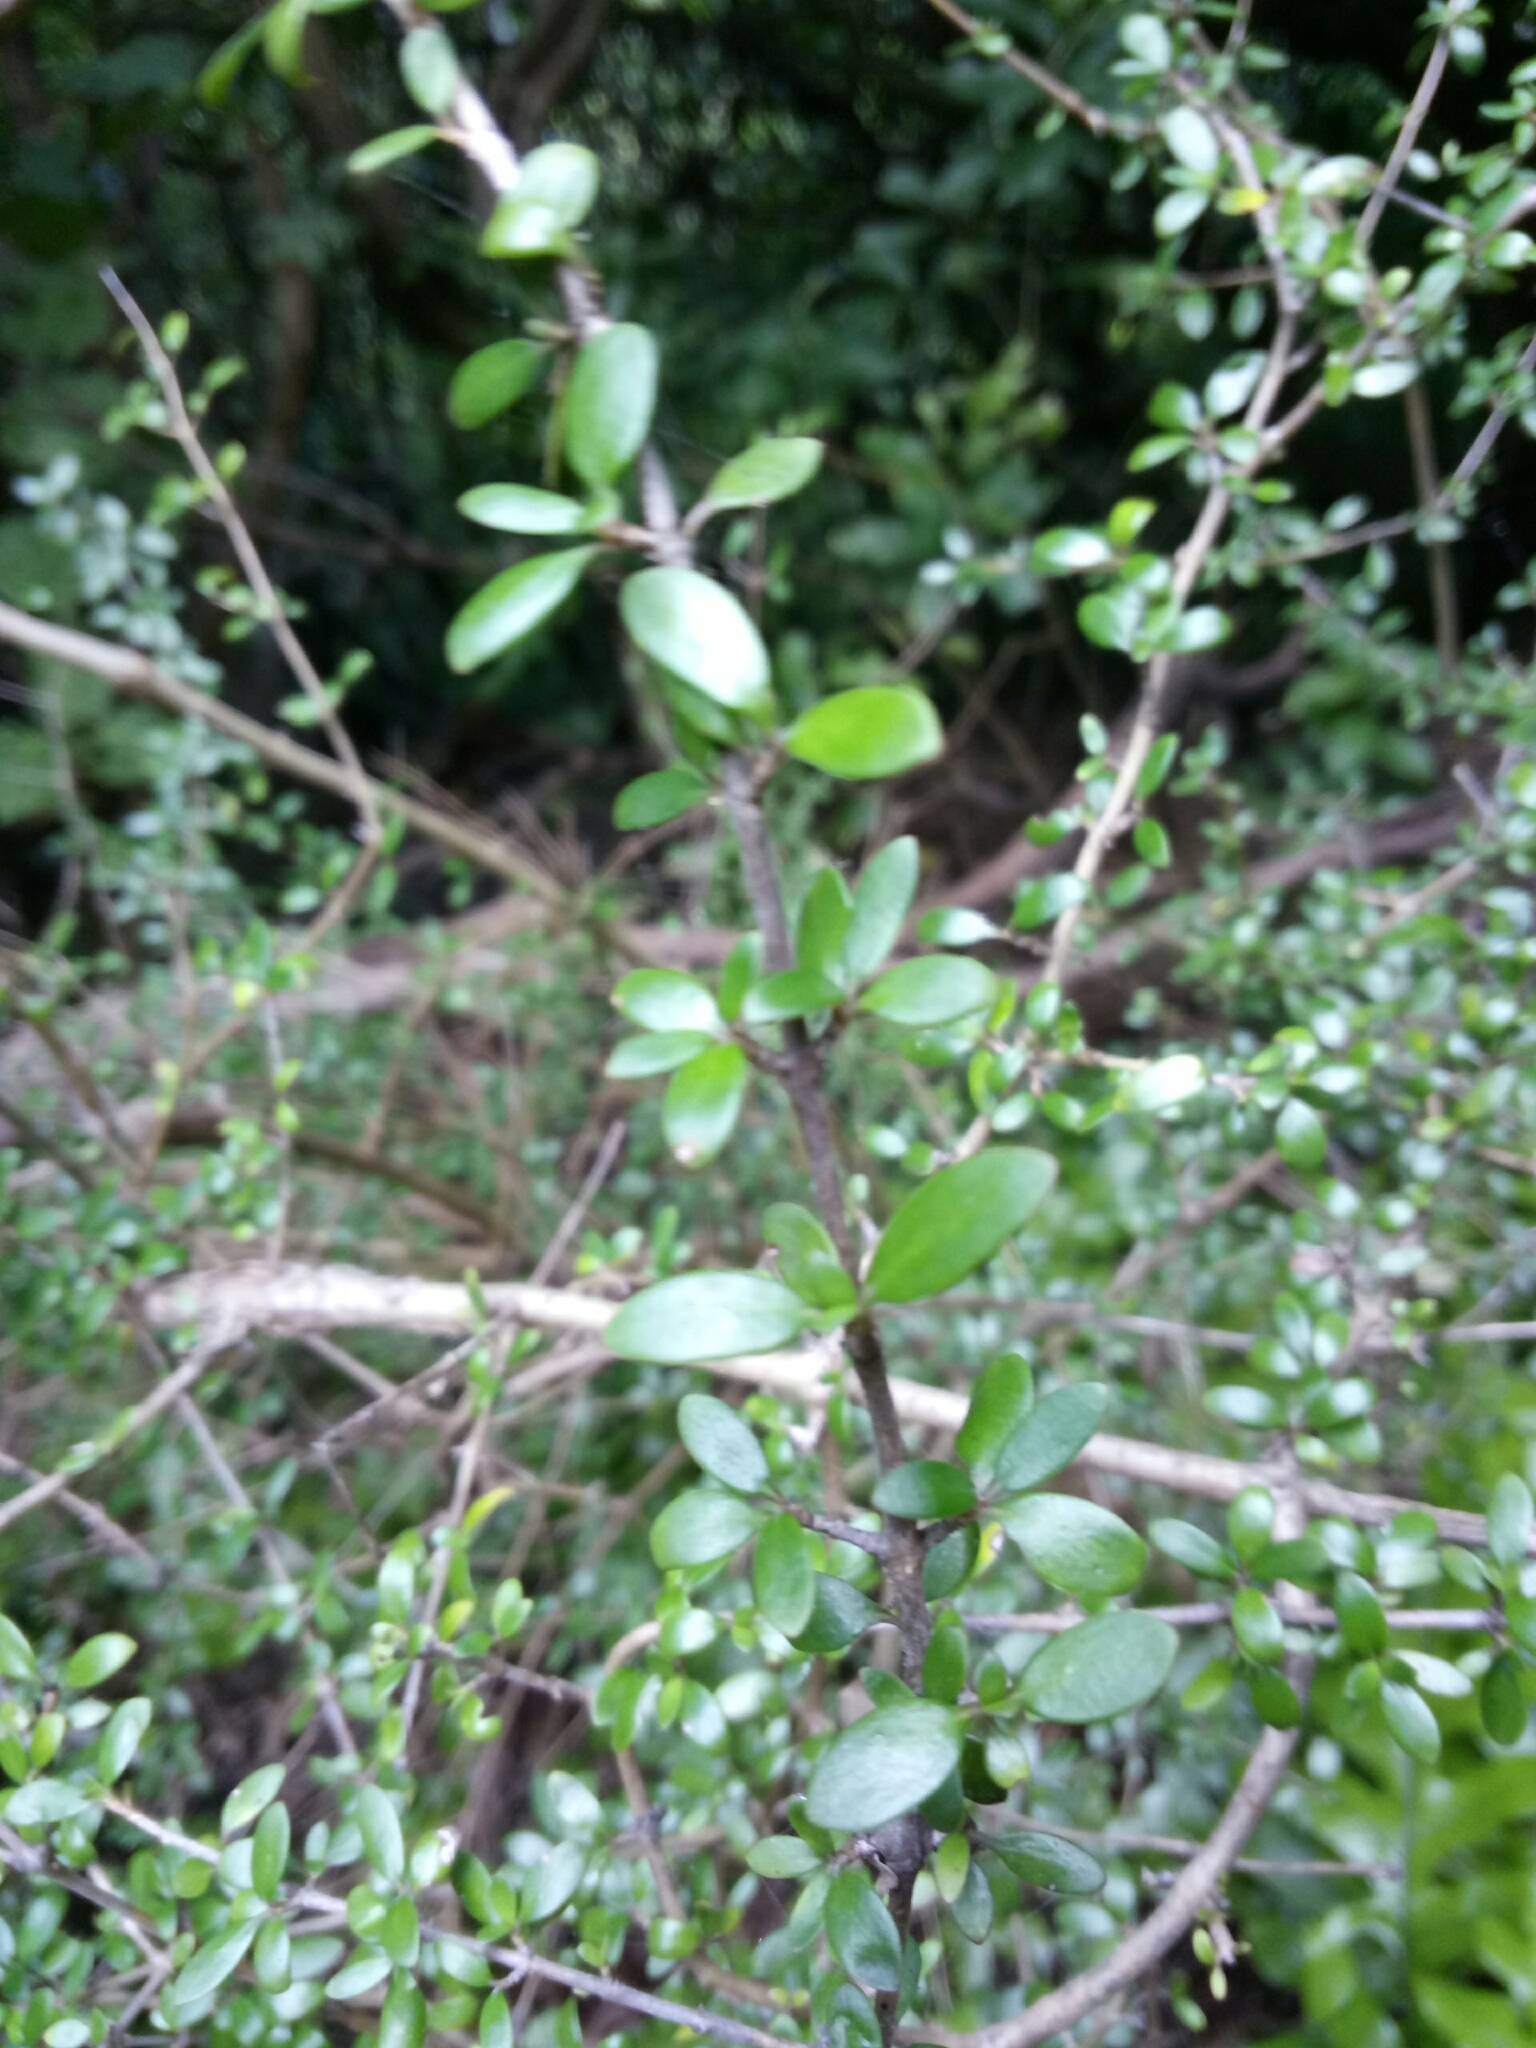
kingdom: Plantae
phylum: Tracheophyta
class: Magnoliopsida
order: Gentianales
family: Rubiaceae
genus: Coprosma
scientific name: Coprosma propinqua
